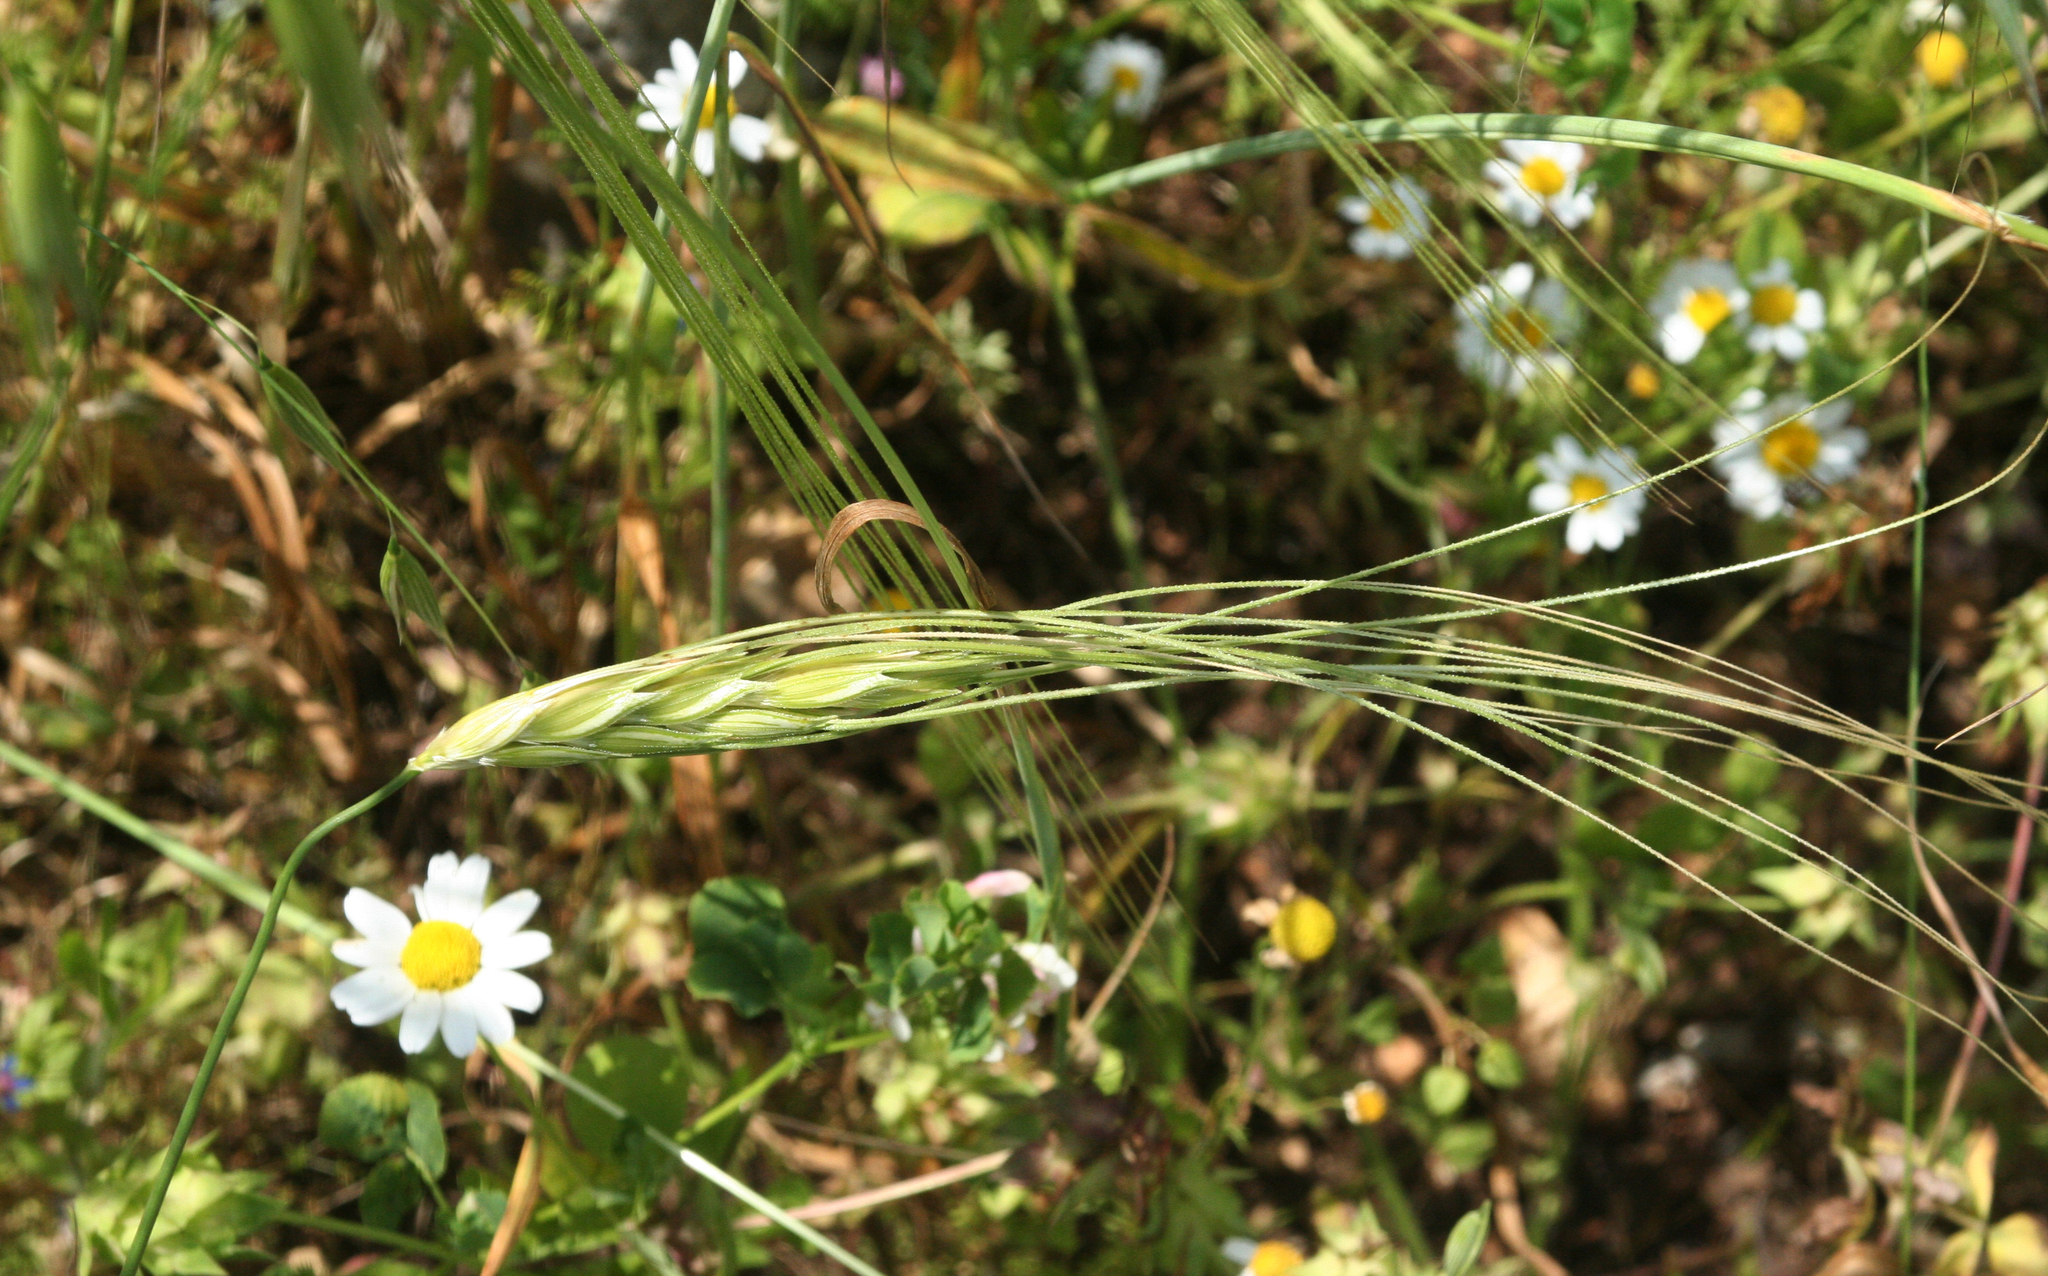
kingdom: Plantae
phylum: Tracheophyta
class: Liliopsida
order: Poales
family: Poaceae
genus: Triticum
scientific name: Triticum dicoccoides
